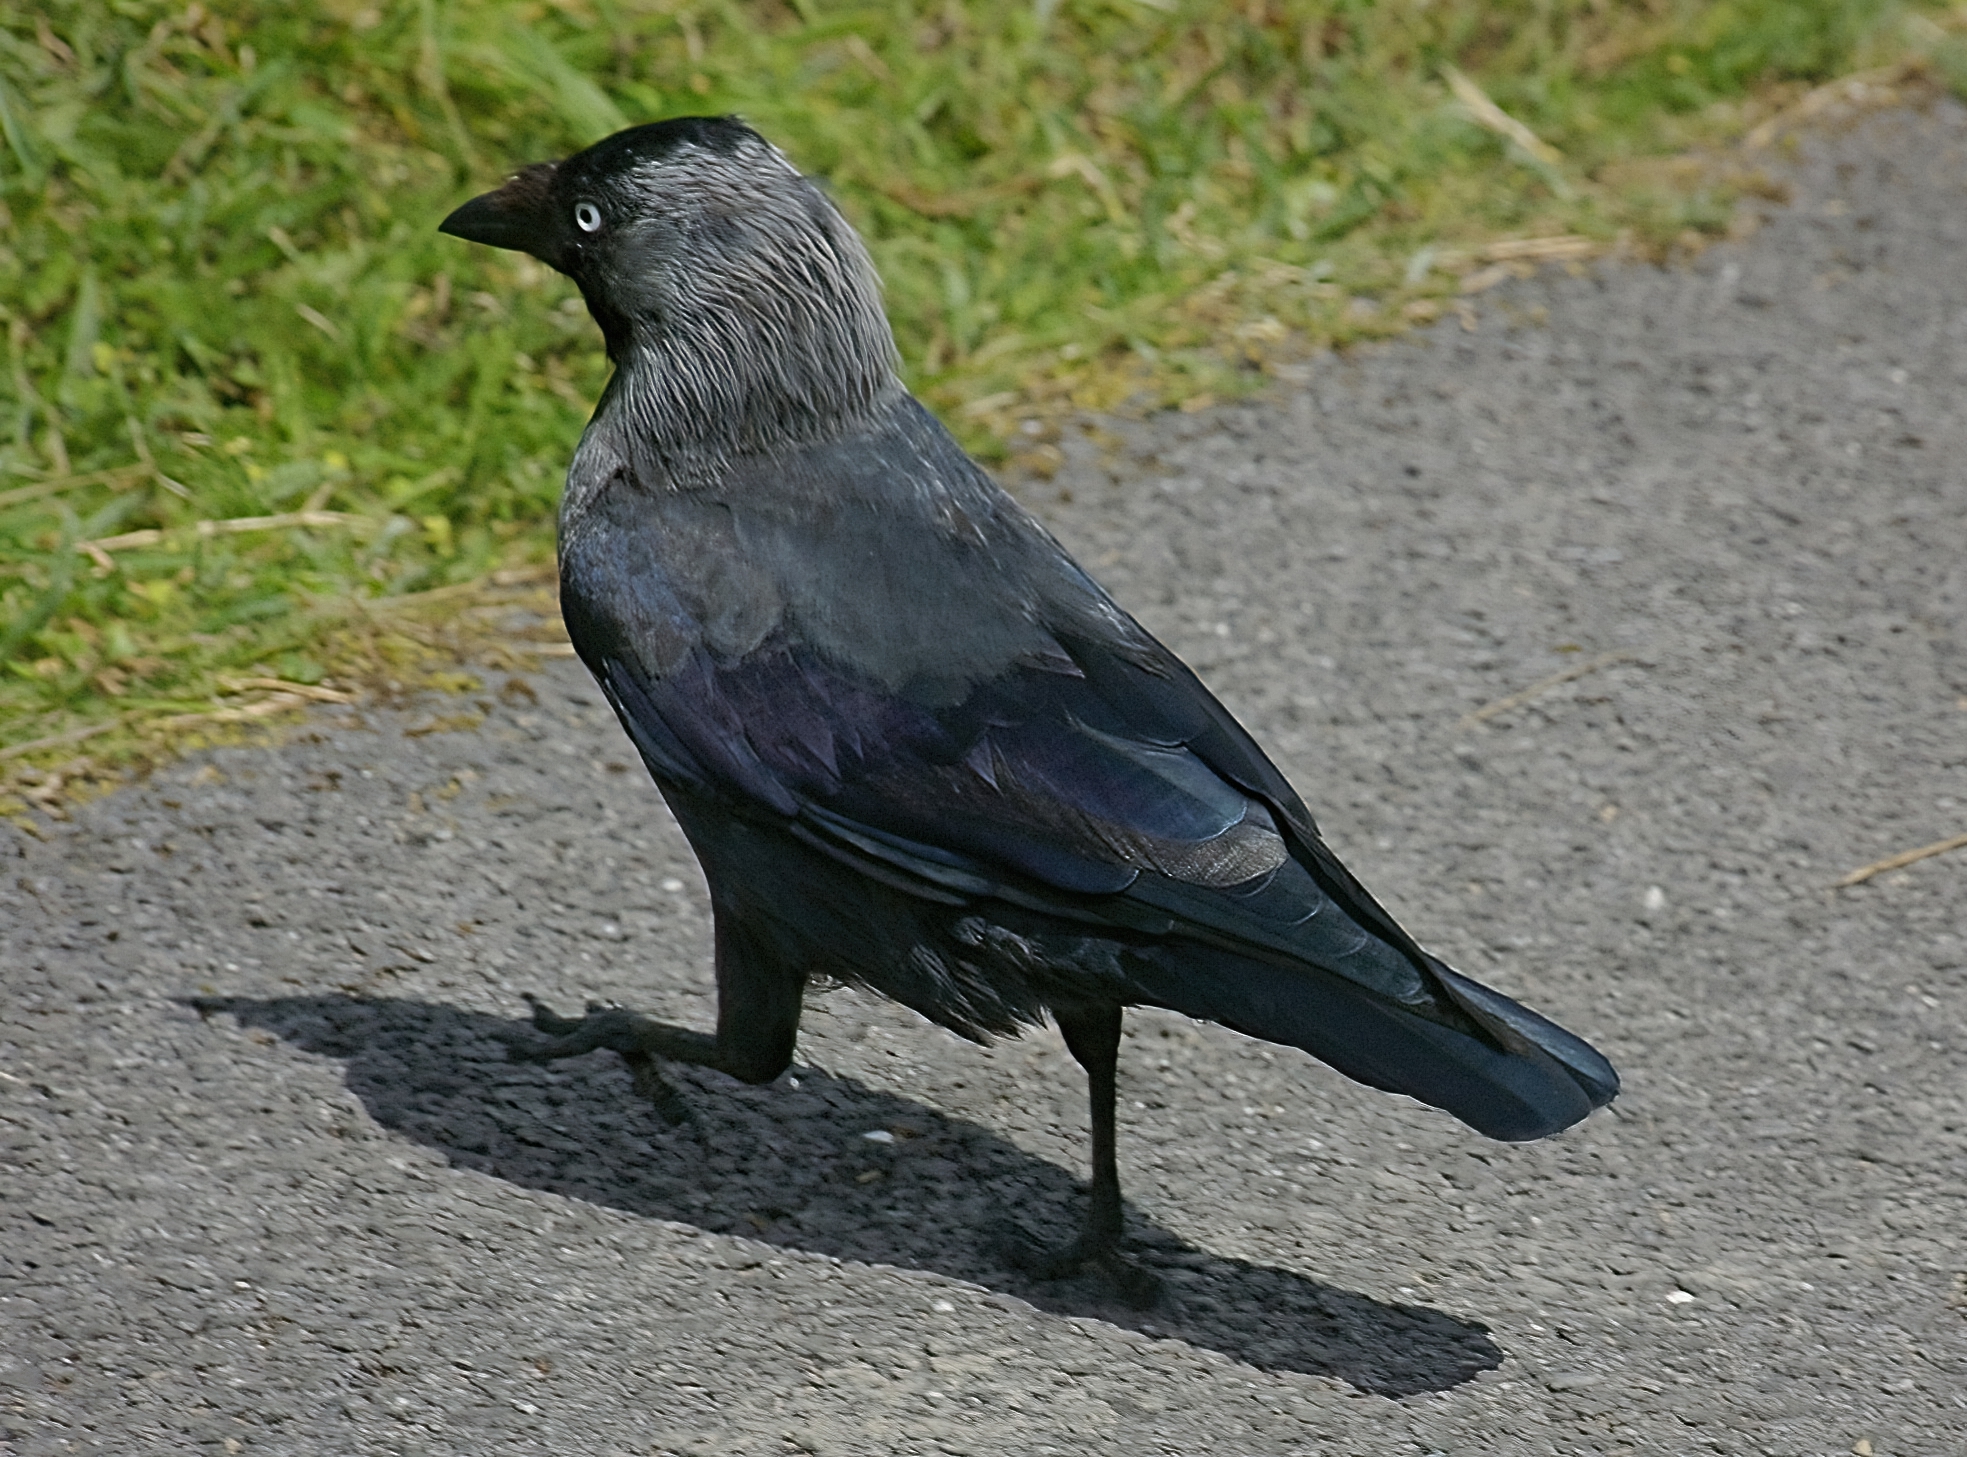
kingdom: Animalia
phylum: Chordata
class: Aves
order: Passeriformes
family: Corvidae
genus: Coloeus
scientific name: Coloeus monedula
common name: Western jackdaw
